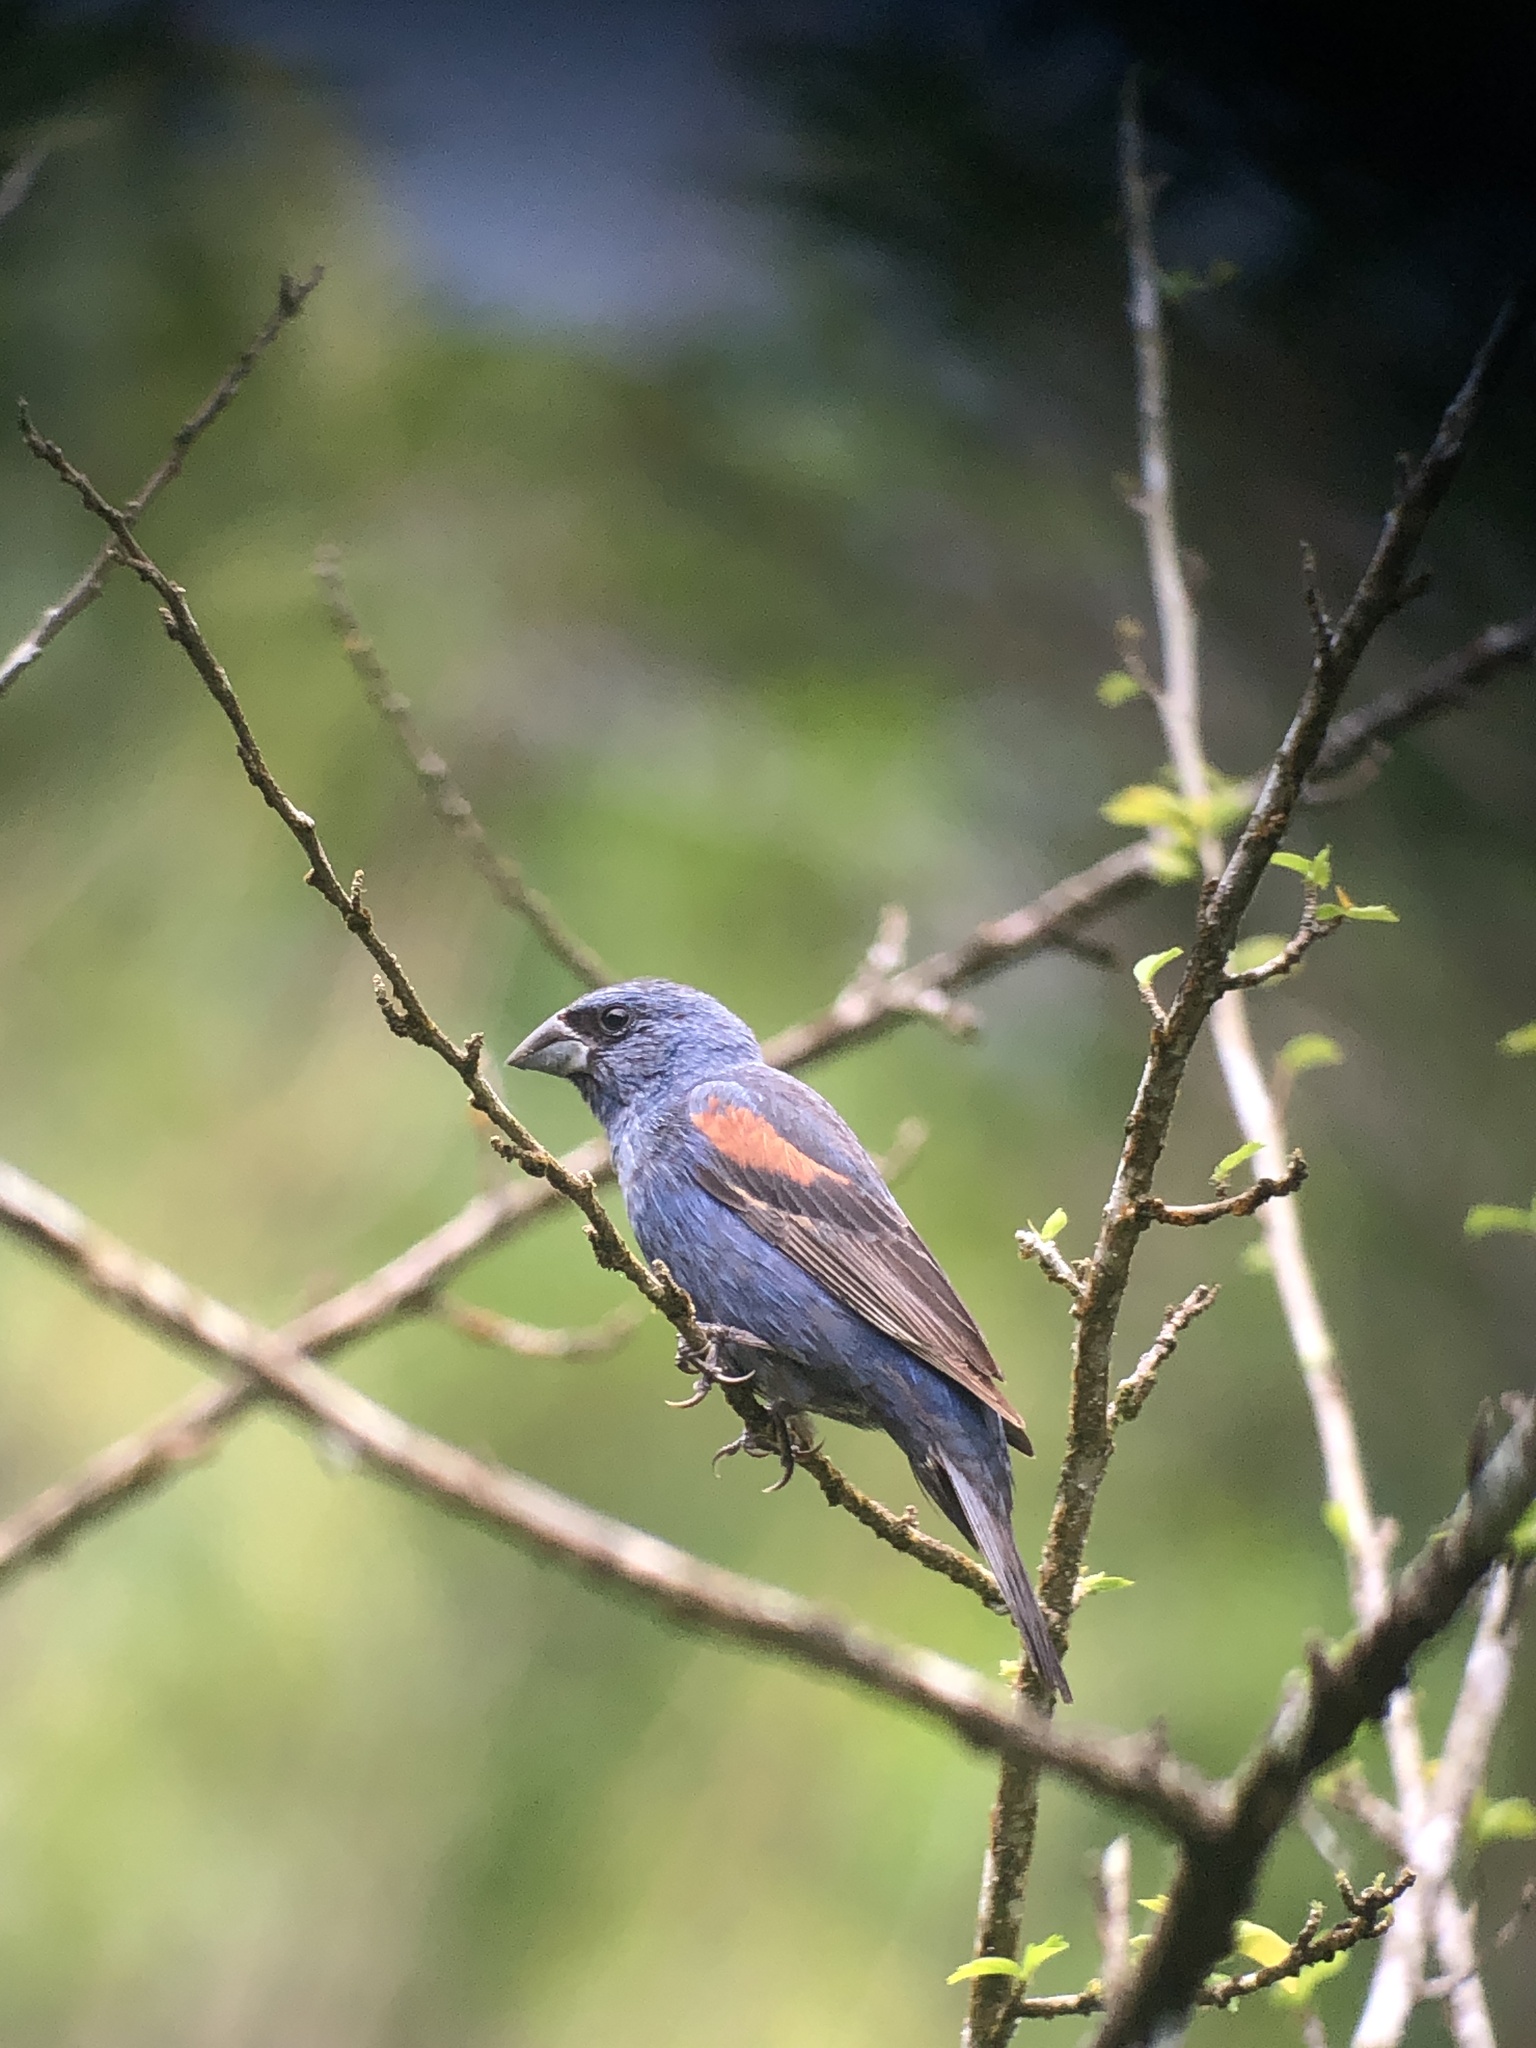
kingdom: Animalia
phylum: Chordata
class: Aves
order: Passeriformes
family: Cardinalidae
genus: Passerina
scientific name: Passerina caerulea
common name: Blue grosbeak
